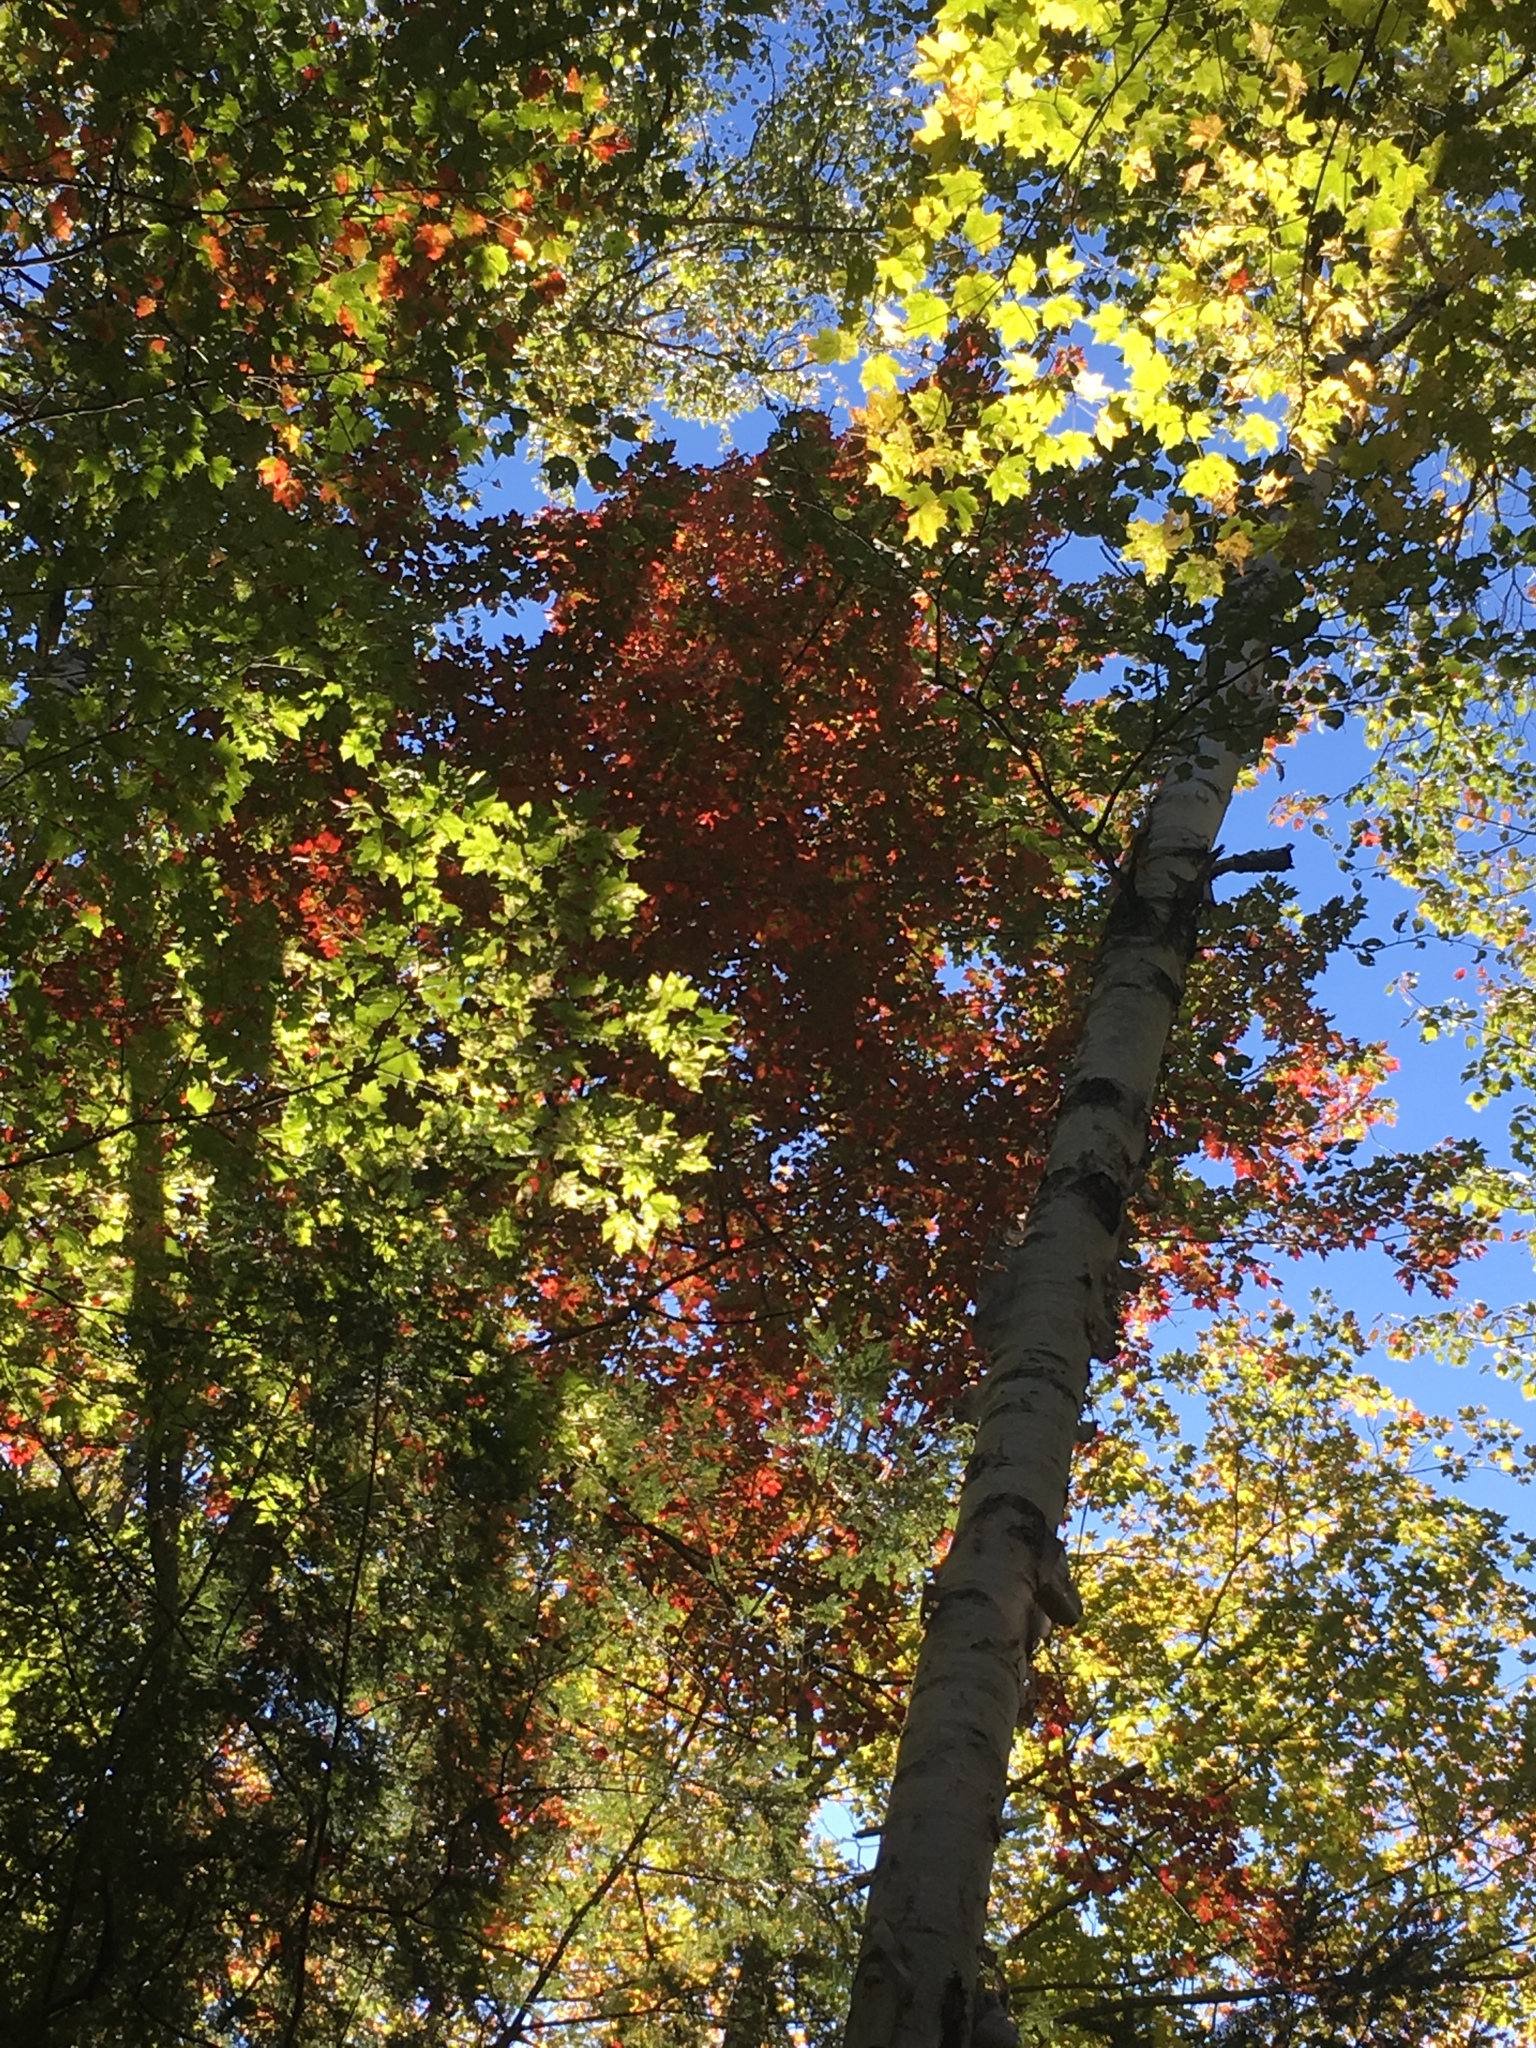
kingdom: Plantae
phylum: Tracheophyta
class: Magnoliopsida
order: Sapindales
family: Sapindaceae
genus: Acer
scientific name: Acer rubrum
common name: Red maple
